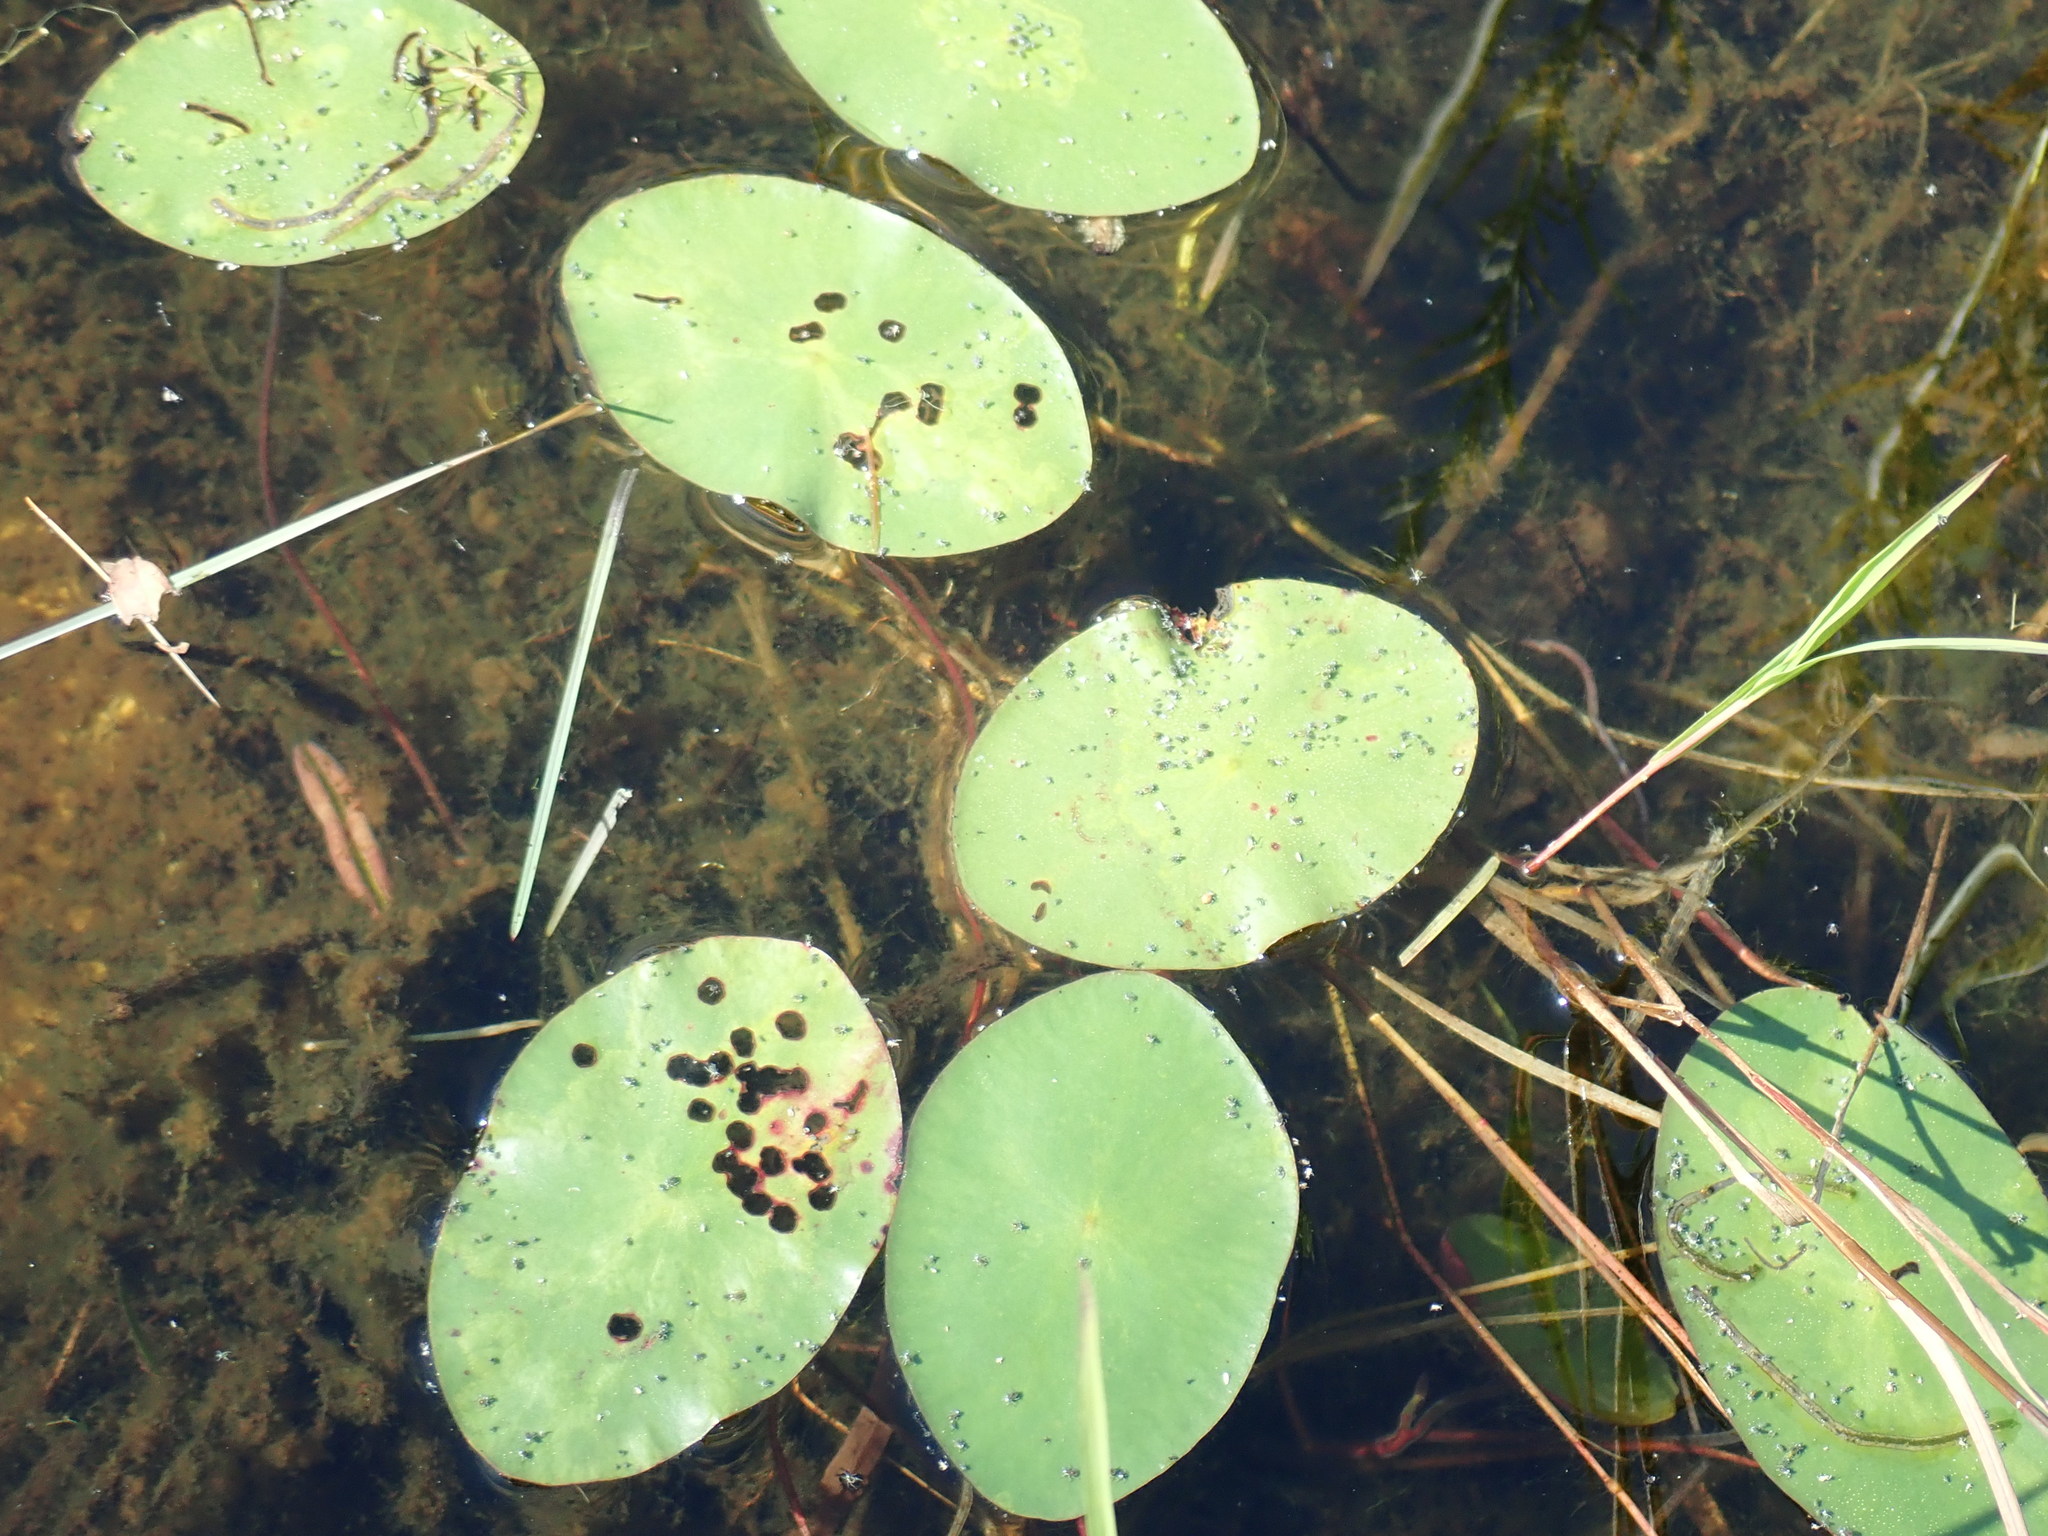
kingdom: Plantae
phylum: Tracheophyta
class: Magnoliopsida
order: Nymphaeales
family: Cabombaceae
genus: Brasenia
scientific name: Brasenia schreberi
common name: Water-shield
